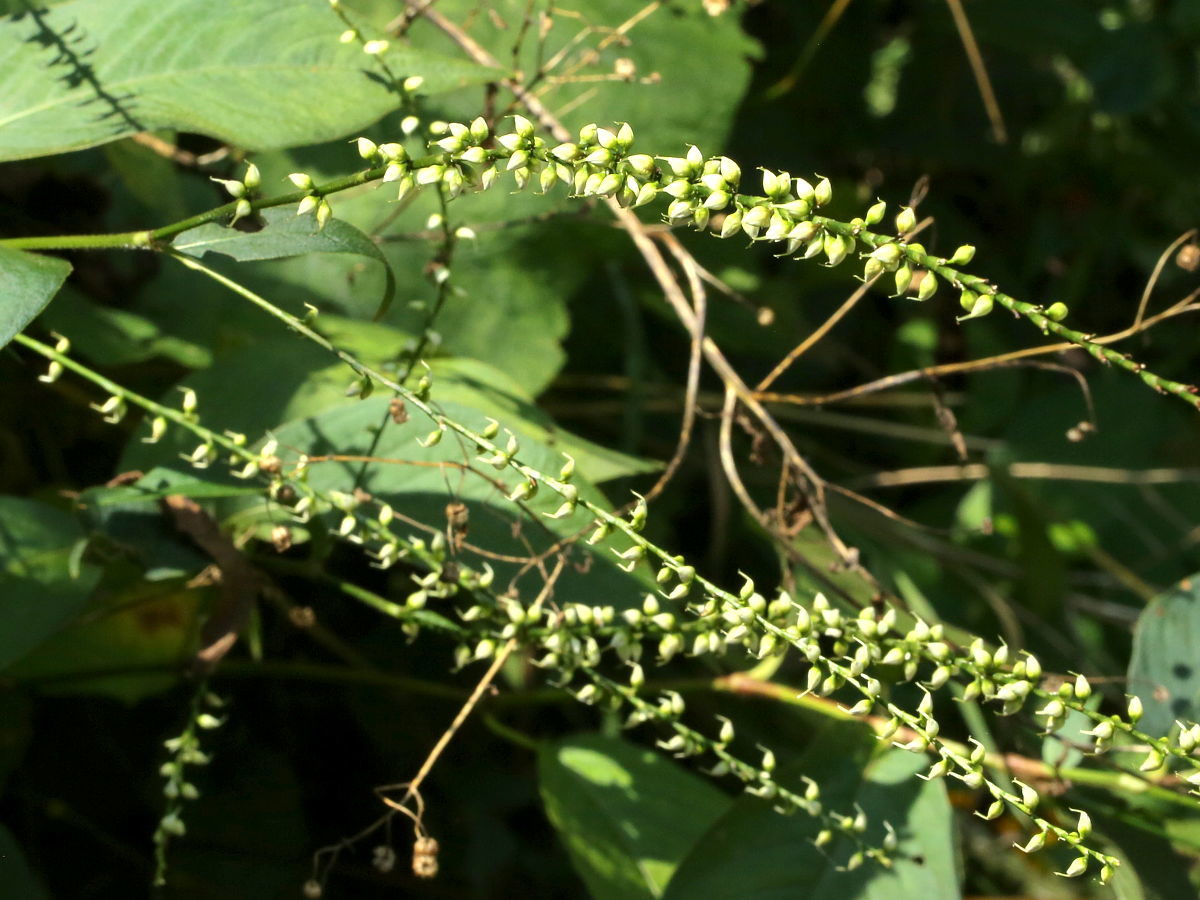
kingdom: Plantae
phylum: Tracheophyta
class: Magnoliopsida
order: Caryophyllales
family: Polygonaceae
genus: Persicaria
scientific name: Persicaria virginiana
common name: Jumpseed
